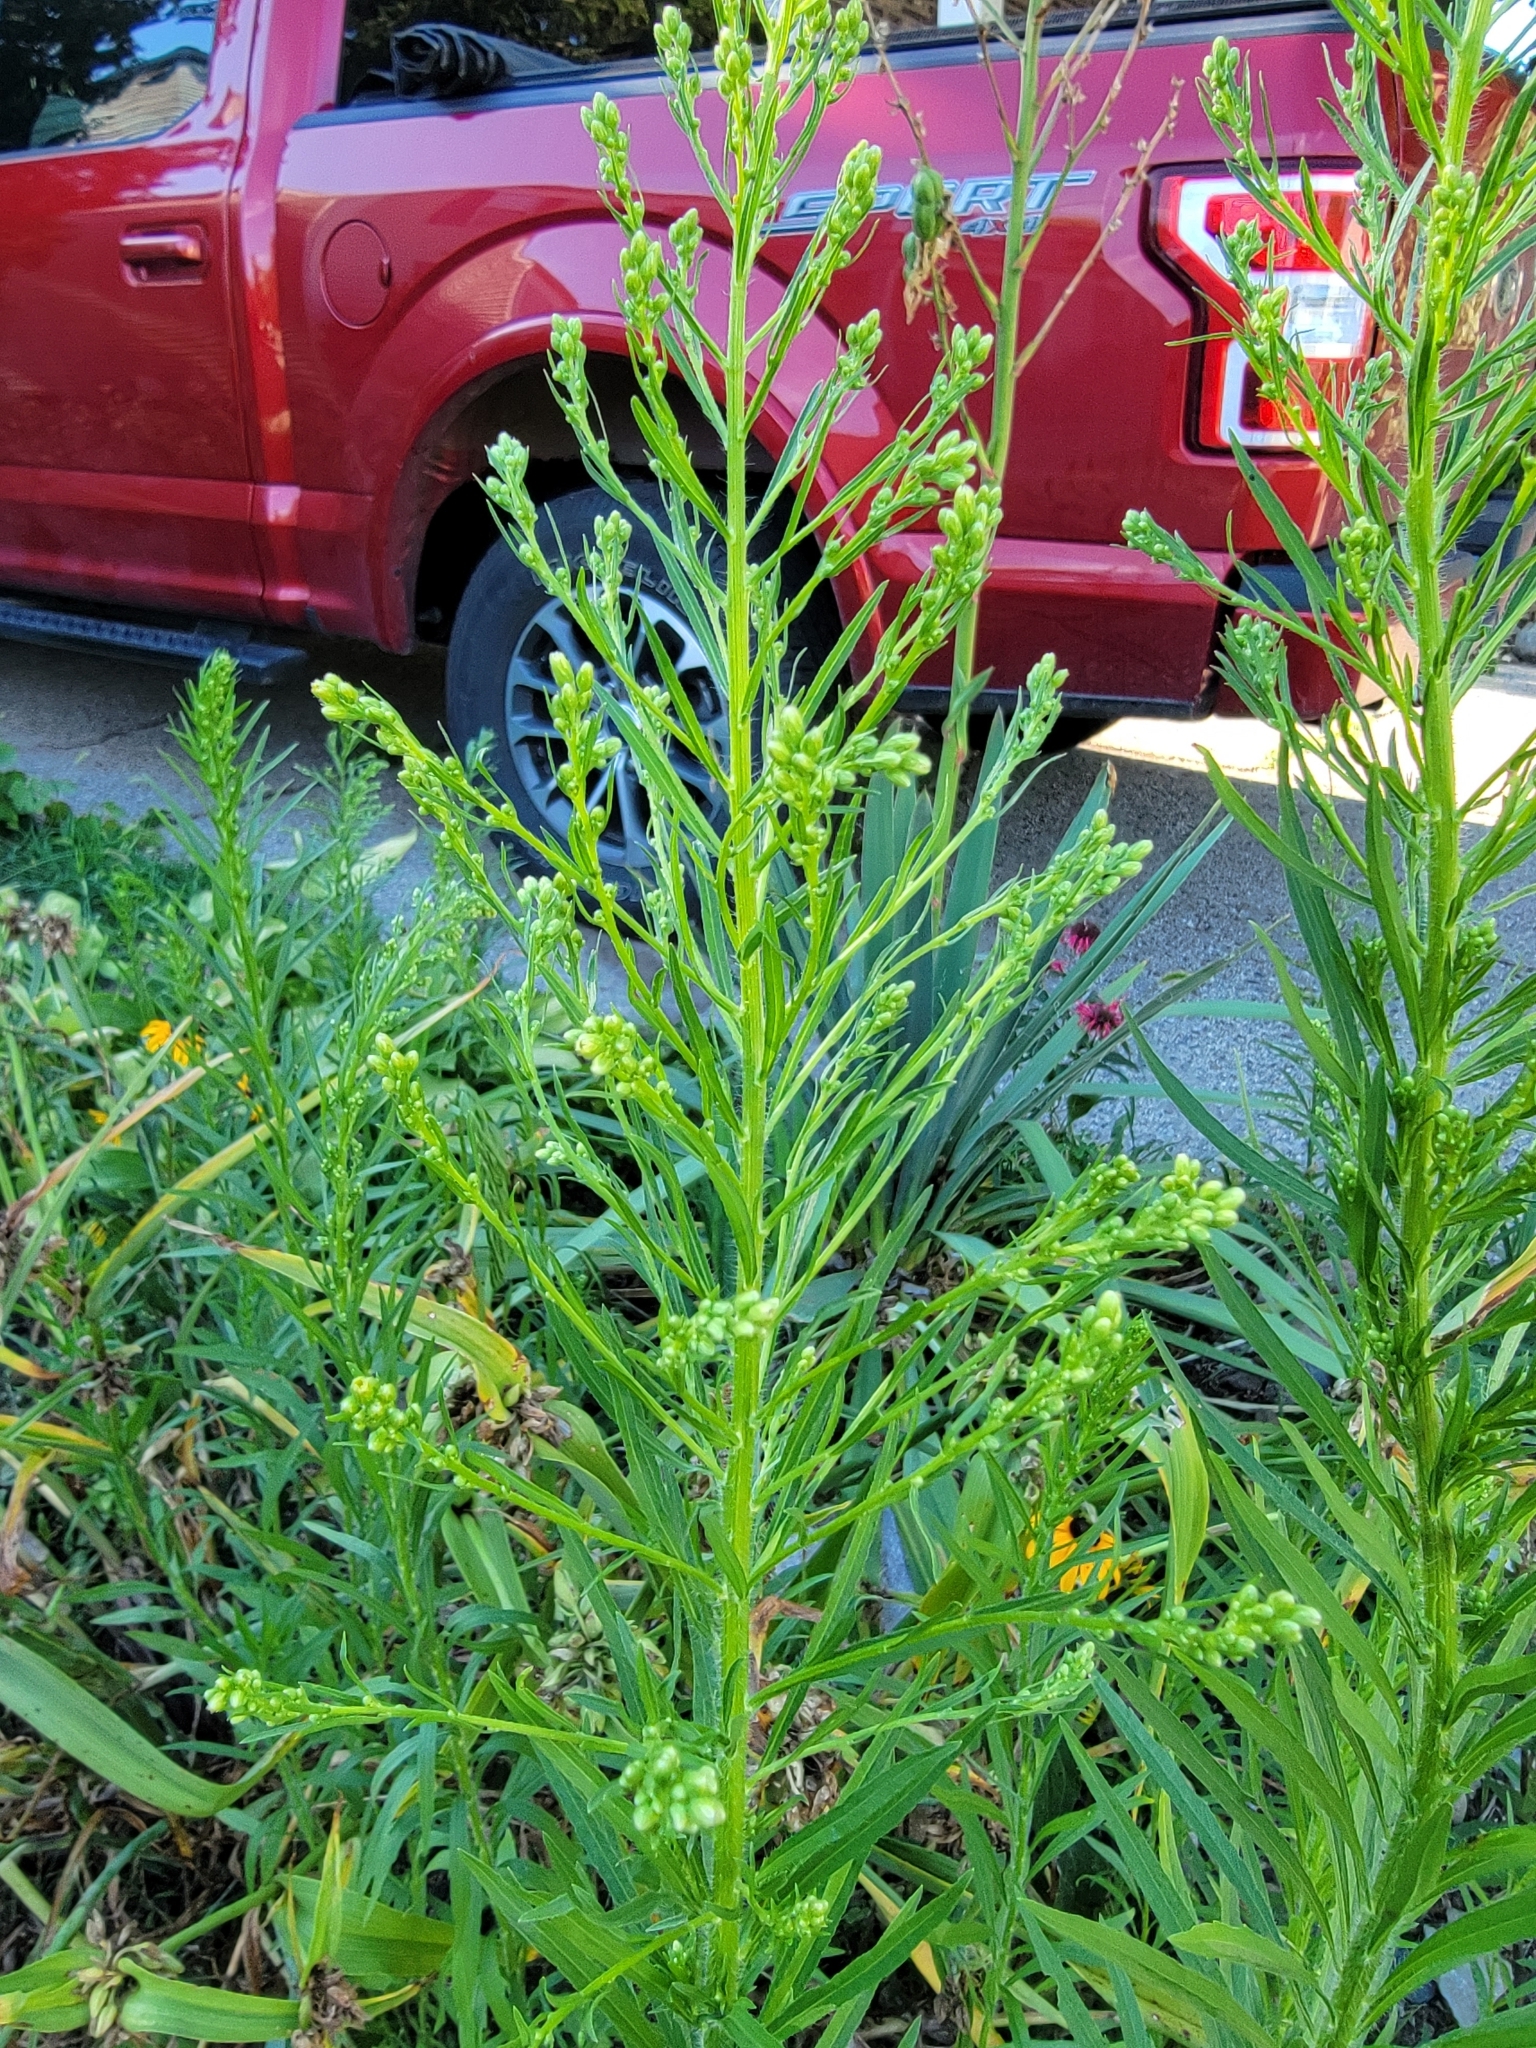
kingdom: Plantae
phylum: Tracheophyta
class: Magnoliopsida
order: Asterales
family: Asteraceae
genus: Erigeron
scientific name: Erigeron canadensis
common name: Canadian fleabane
